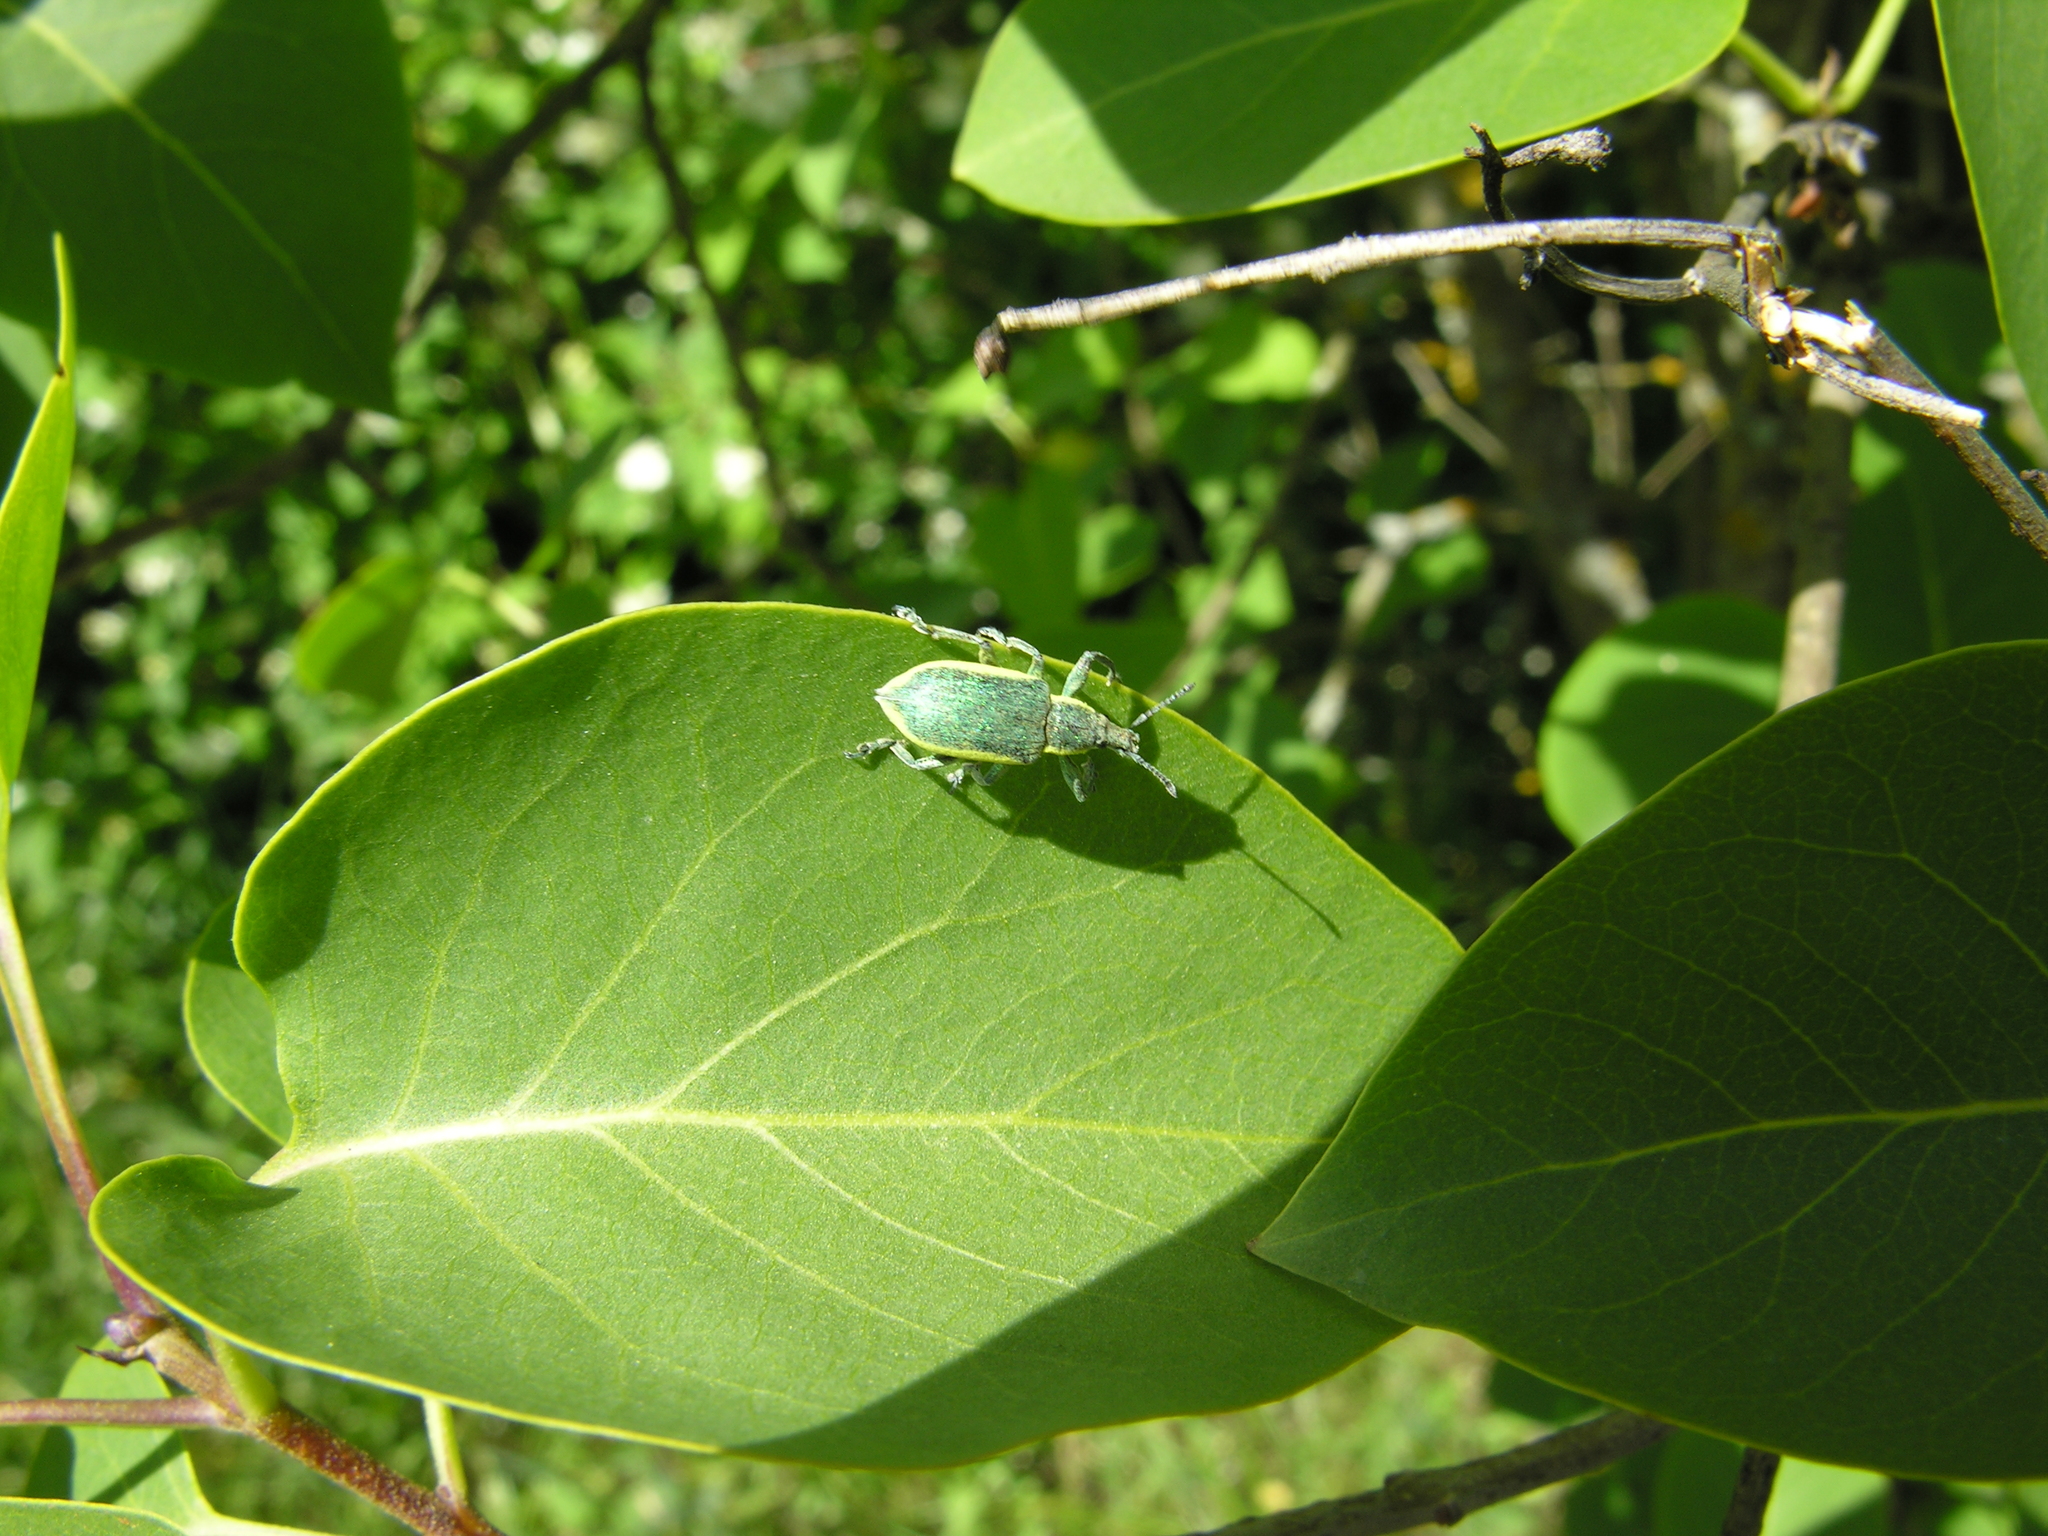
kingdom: Animalia
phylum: Arthropoda
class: Insecta
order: Coleoptera
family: Curculionidae
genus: Chlorophanus
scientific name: Chlorophanus viridis
